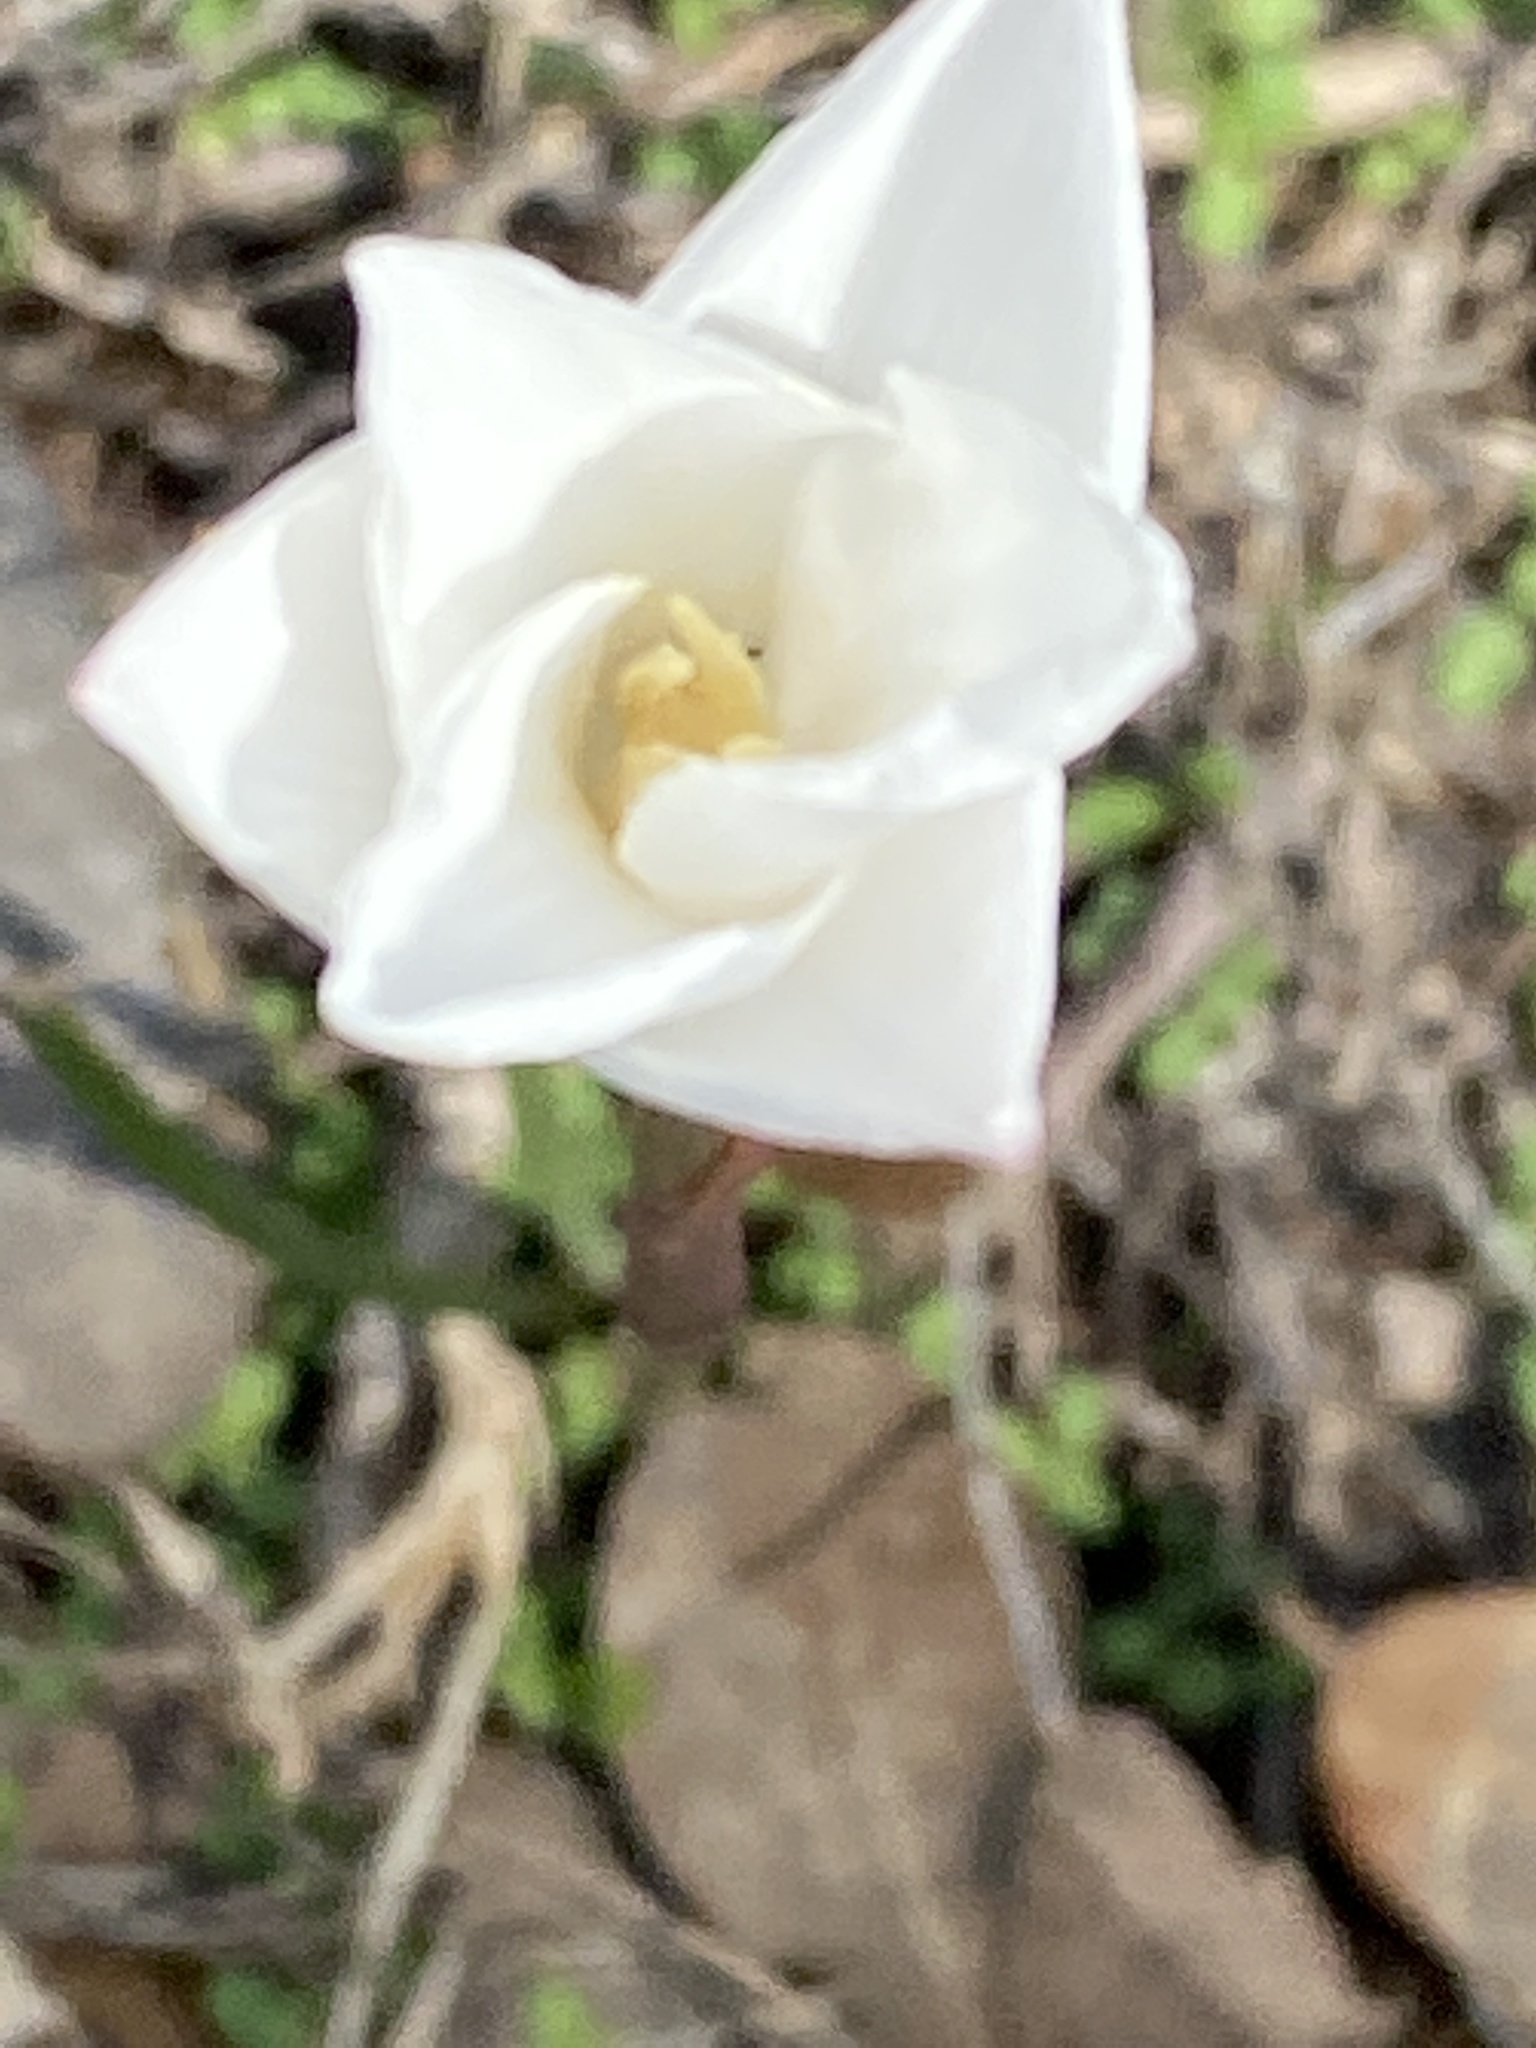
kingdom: Plantae
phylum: Tracheophyta
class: Liliopsida
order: Asparagales
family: Amaryllidaceae
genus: Zephyranthes
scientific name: Zephyranthes chlorosolen
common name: Evening rain-lily
